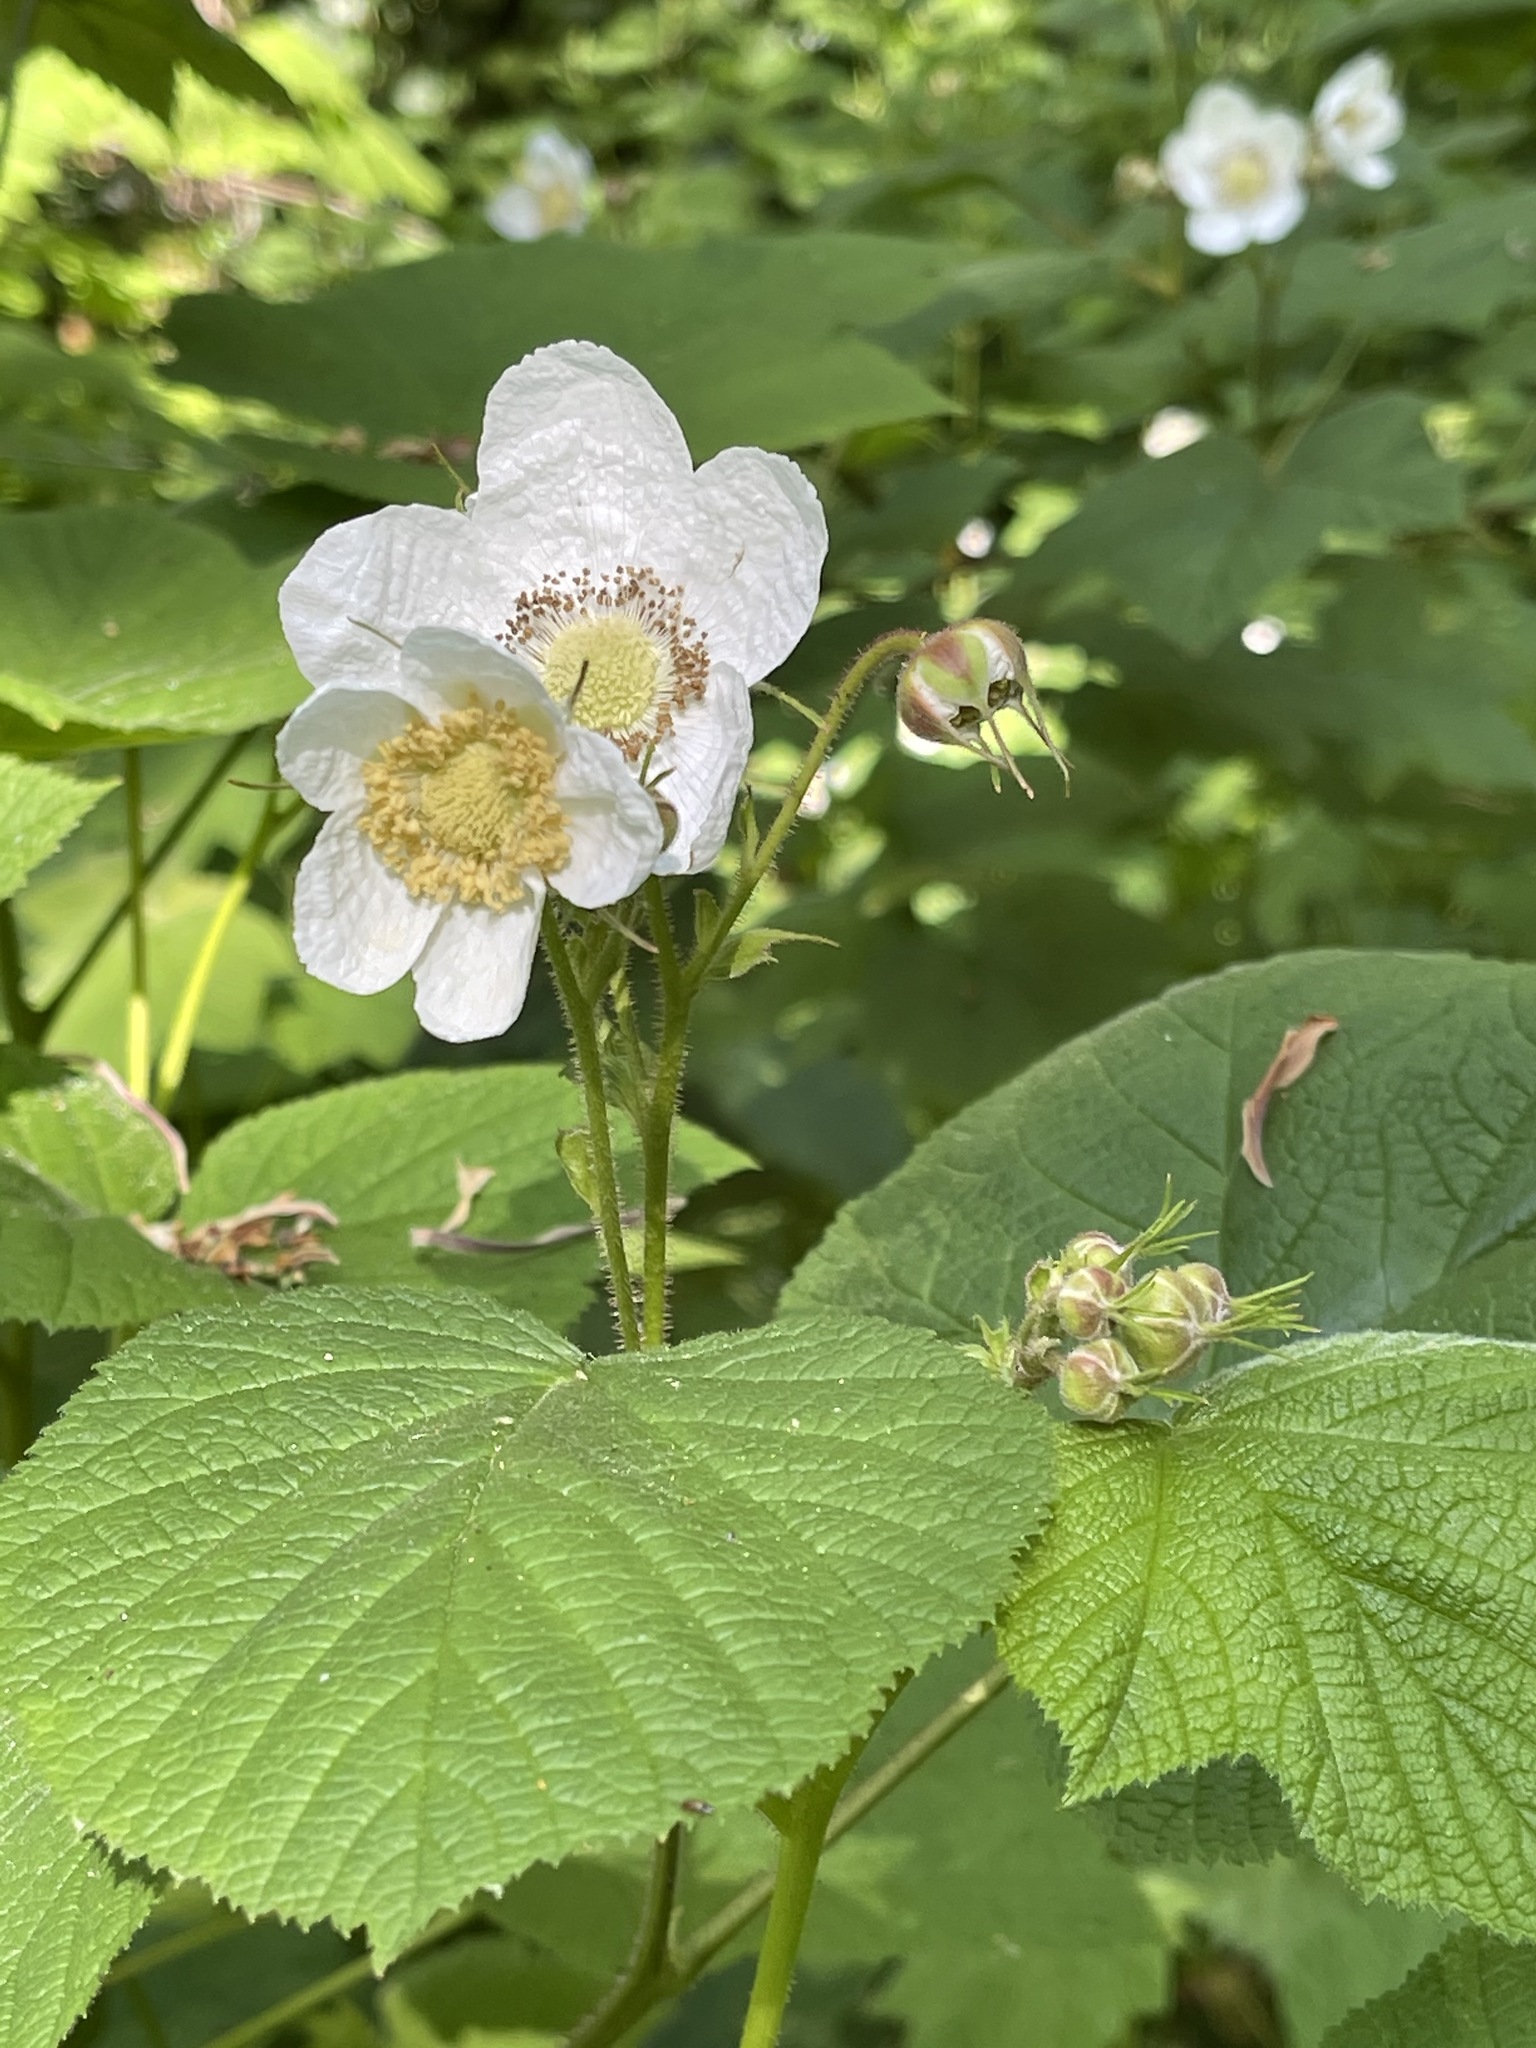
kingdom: Plantae
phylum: Tracheophyta
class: Magnoliopsida
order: Rosales
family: Rosaceae
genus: Rubus
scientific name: Rubus parviflorus
